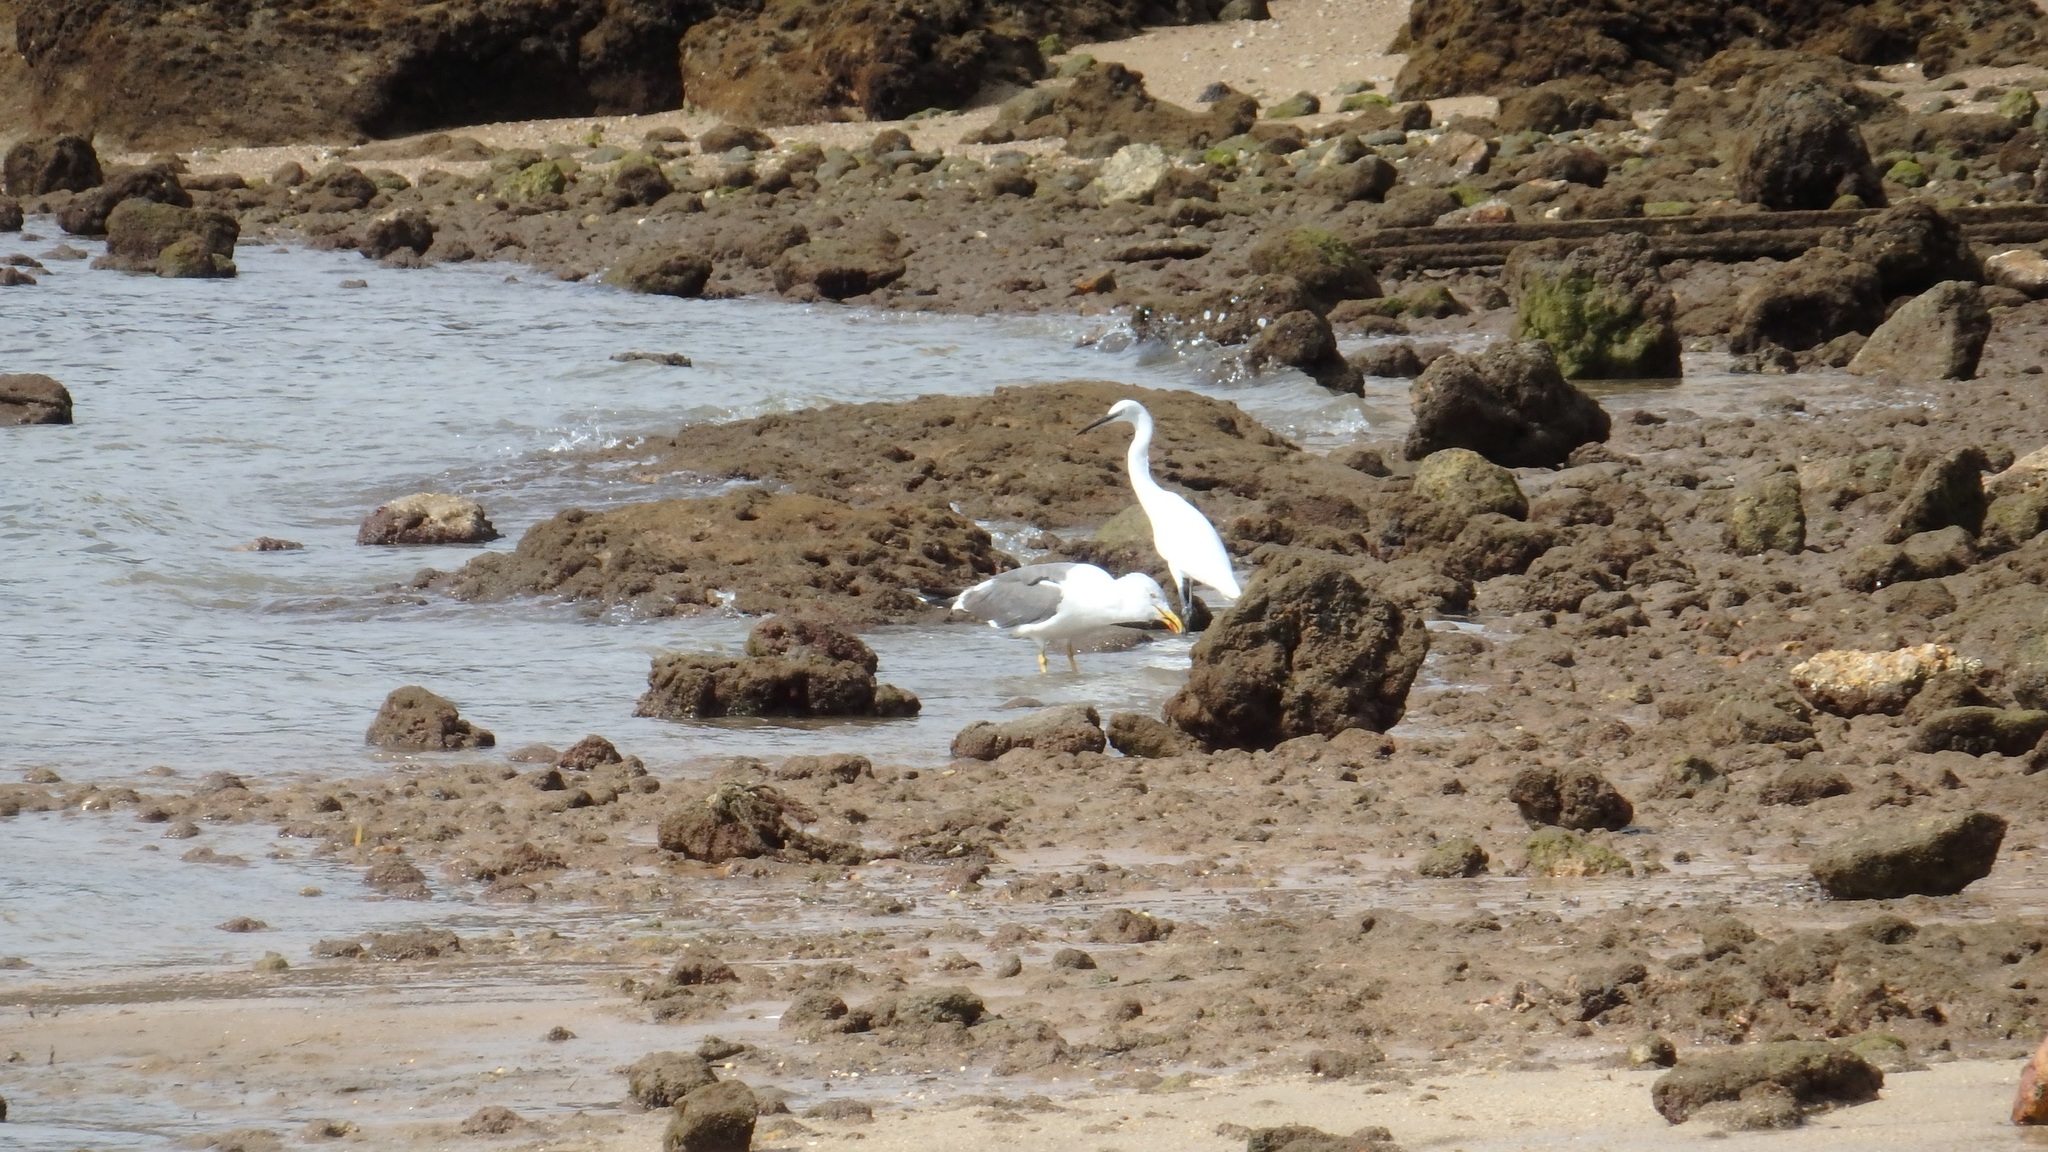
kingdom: Animalia
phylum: Chordata
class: Aves
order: Pelecaniformes
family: Ardeidae
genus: Egretta
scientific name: Egretta garzetta
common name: Little egret
